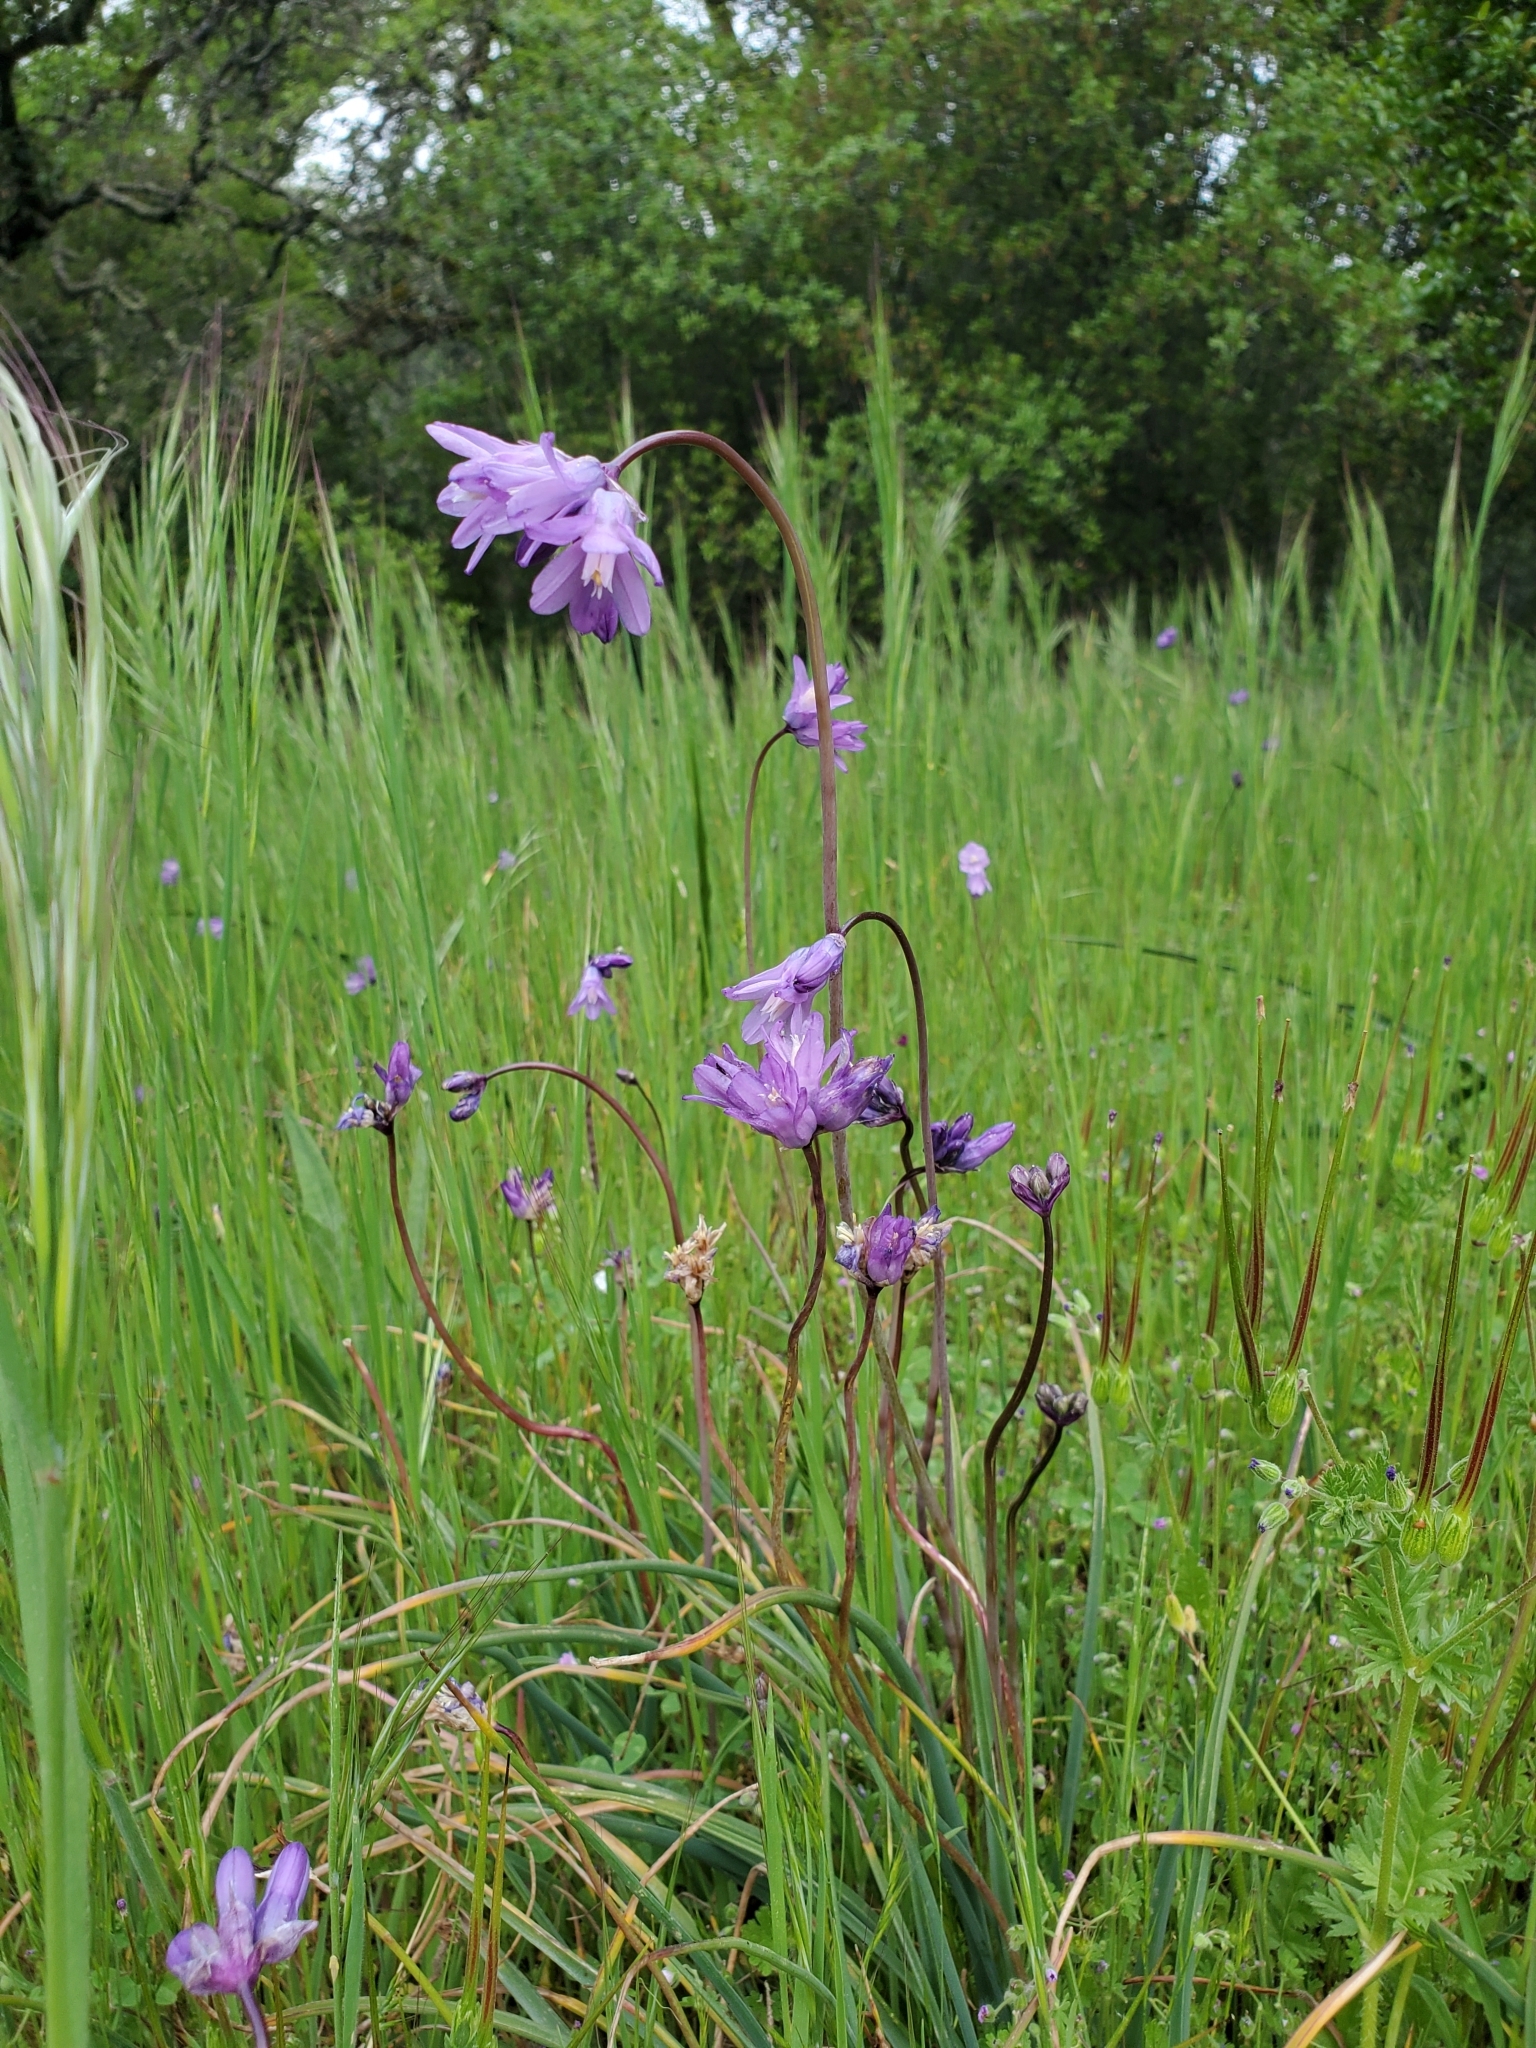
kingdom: Plantae
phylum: Tracheophyta
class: Liliopsida
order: Asparagales
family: Asparagaceae
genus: Dipterostemon
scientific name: Dipterostemon capitatus
